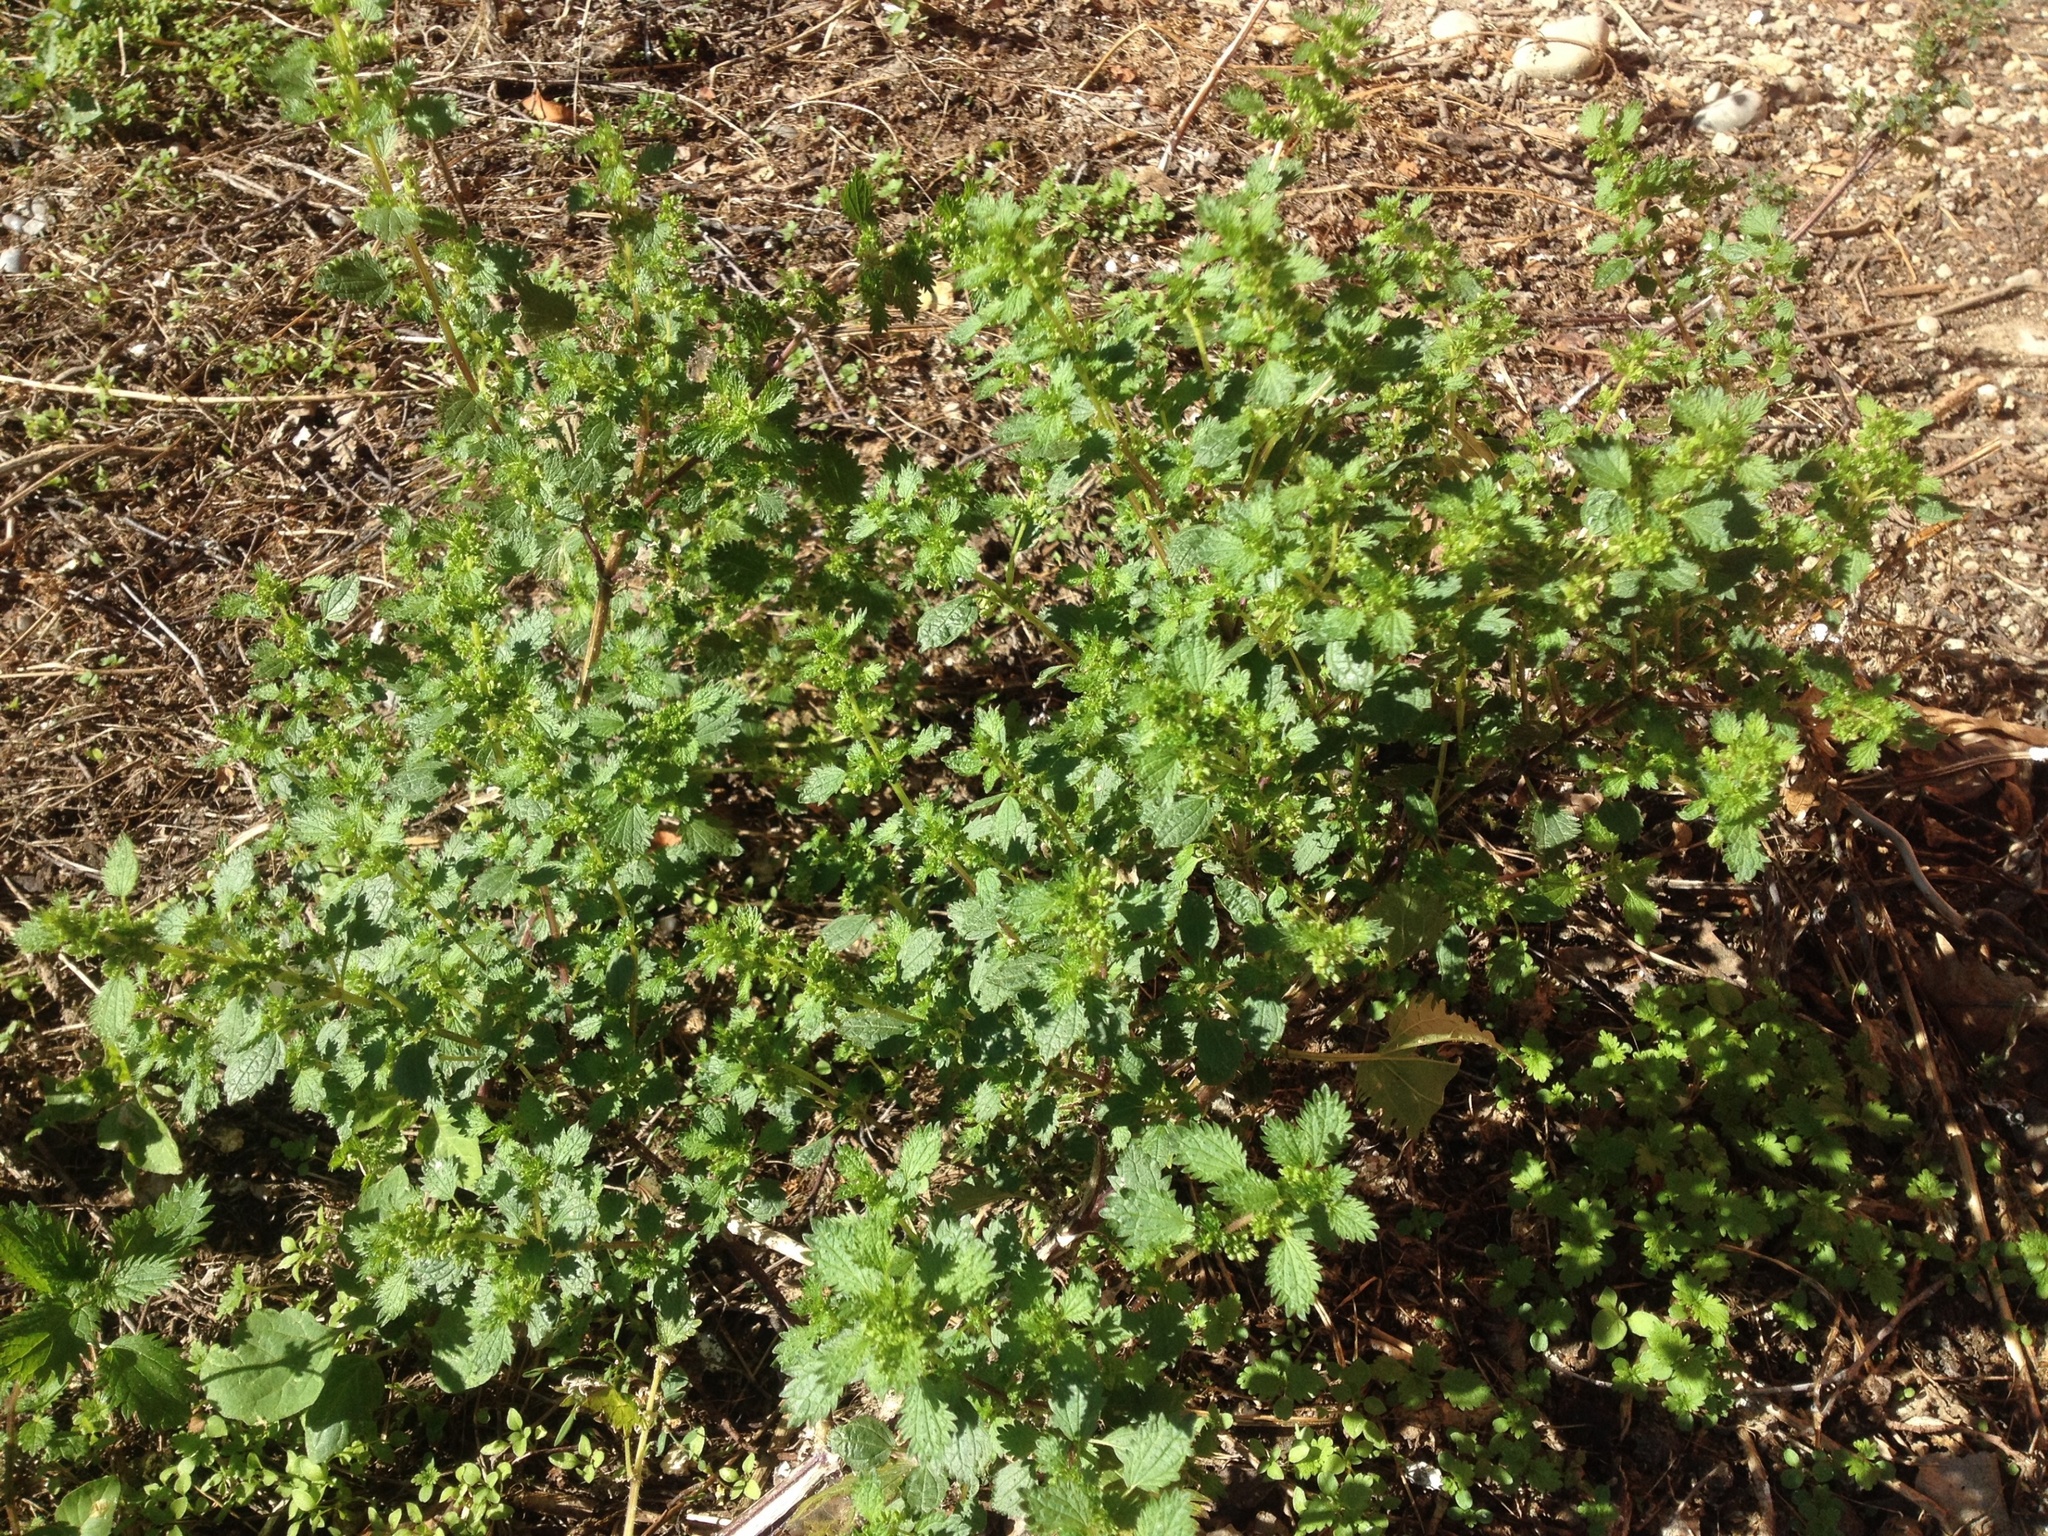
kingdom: Plantae
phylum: Tracheophyta
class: Magnoliopsida
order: Rosales
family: Urticaceae
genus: Urtica
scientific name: Urtica urens
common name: Dwarf nettle
